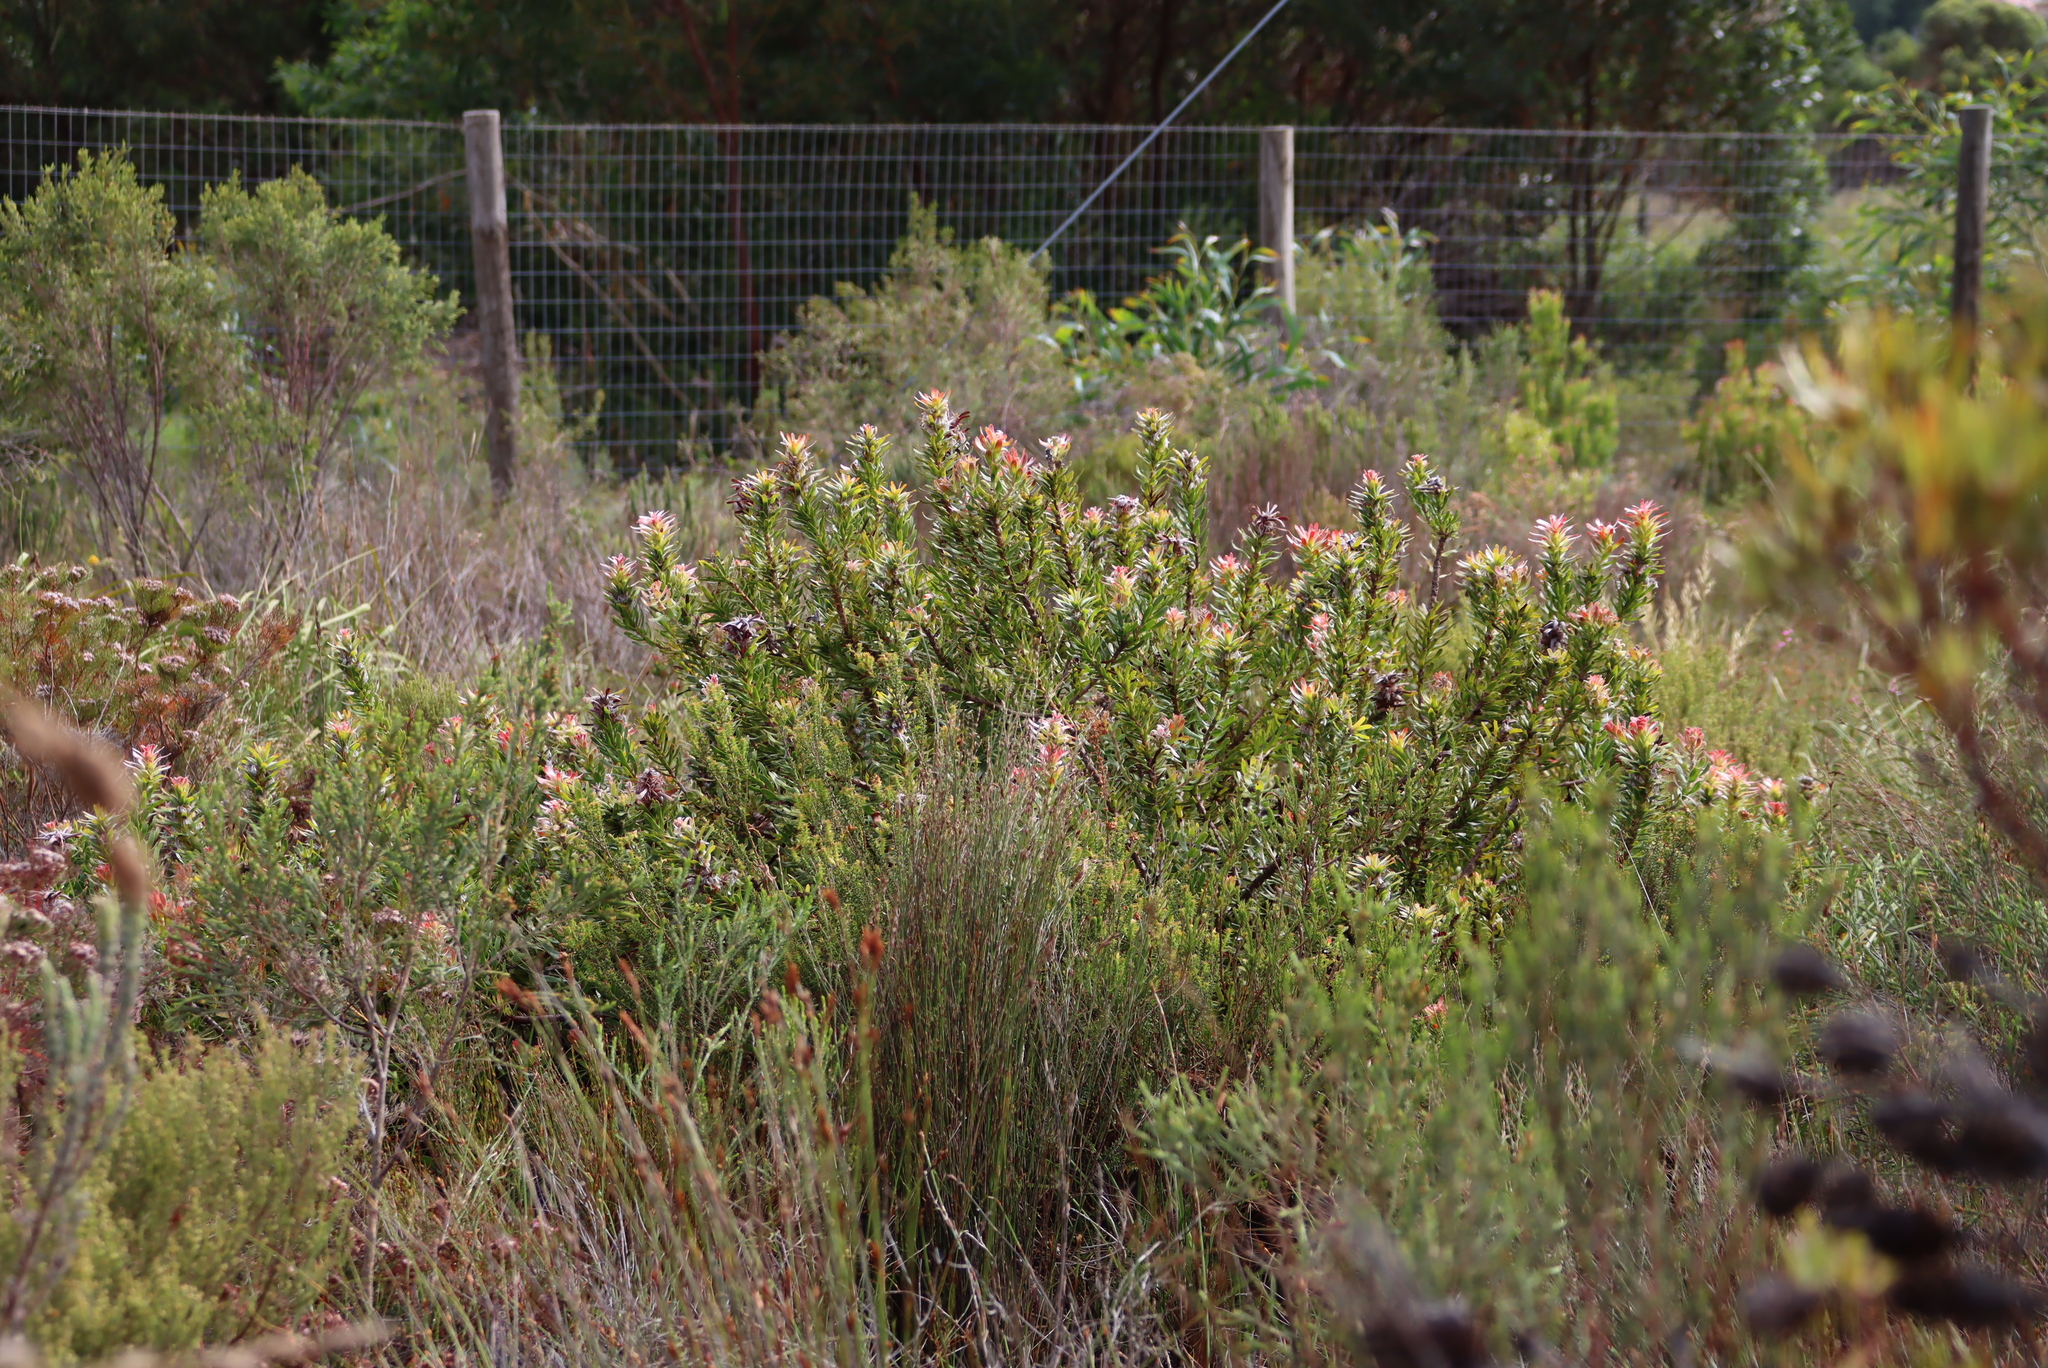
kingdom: Plantae
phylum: Tracheophyta
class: Magnoliopsida
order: Proteales
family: Proteaceae
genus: Mimetes
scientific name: Mimetes cucullatus
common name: Common pagoda
